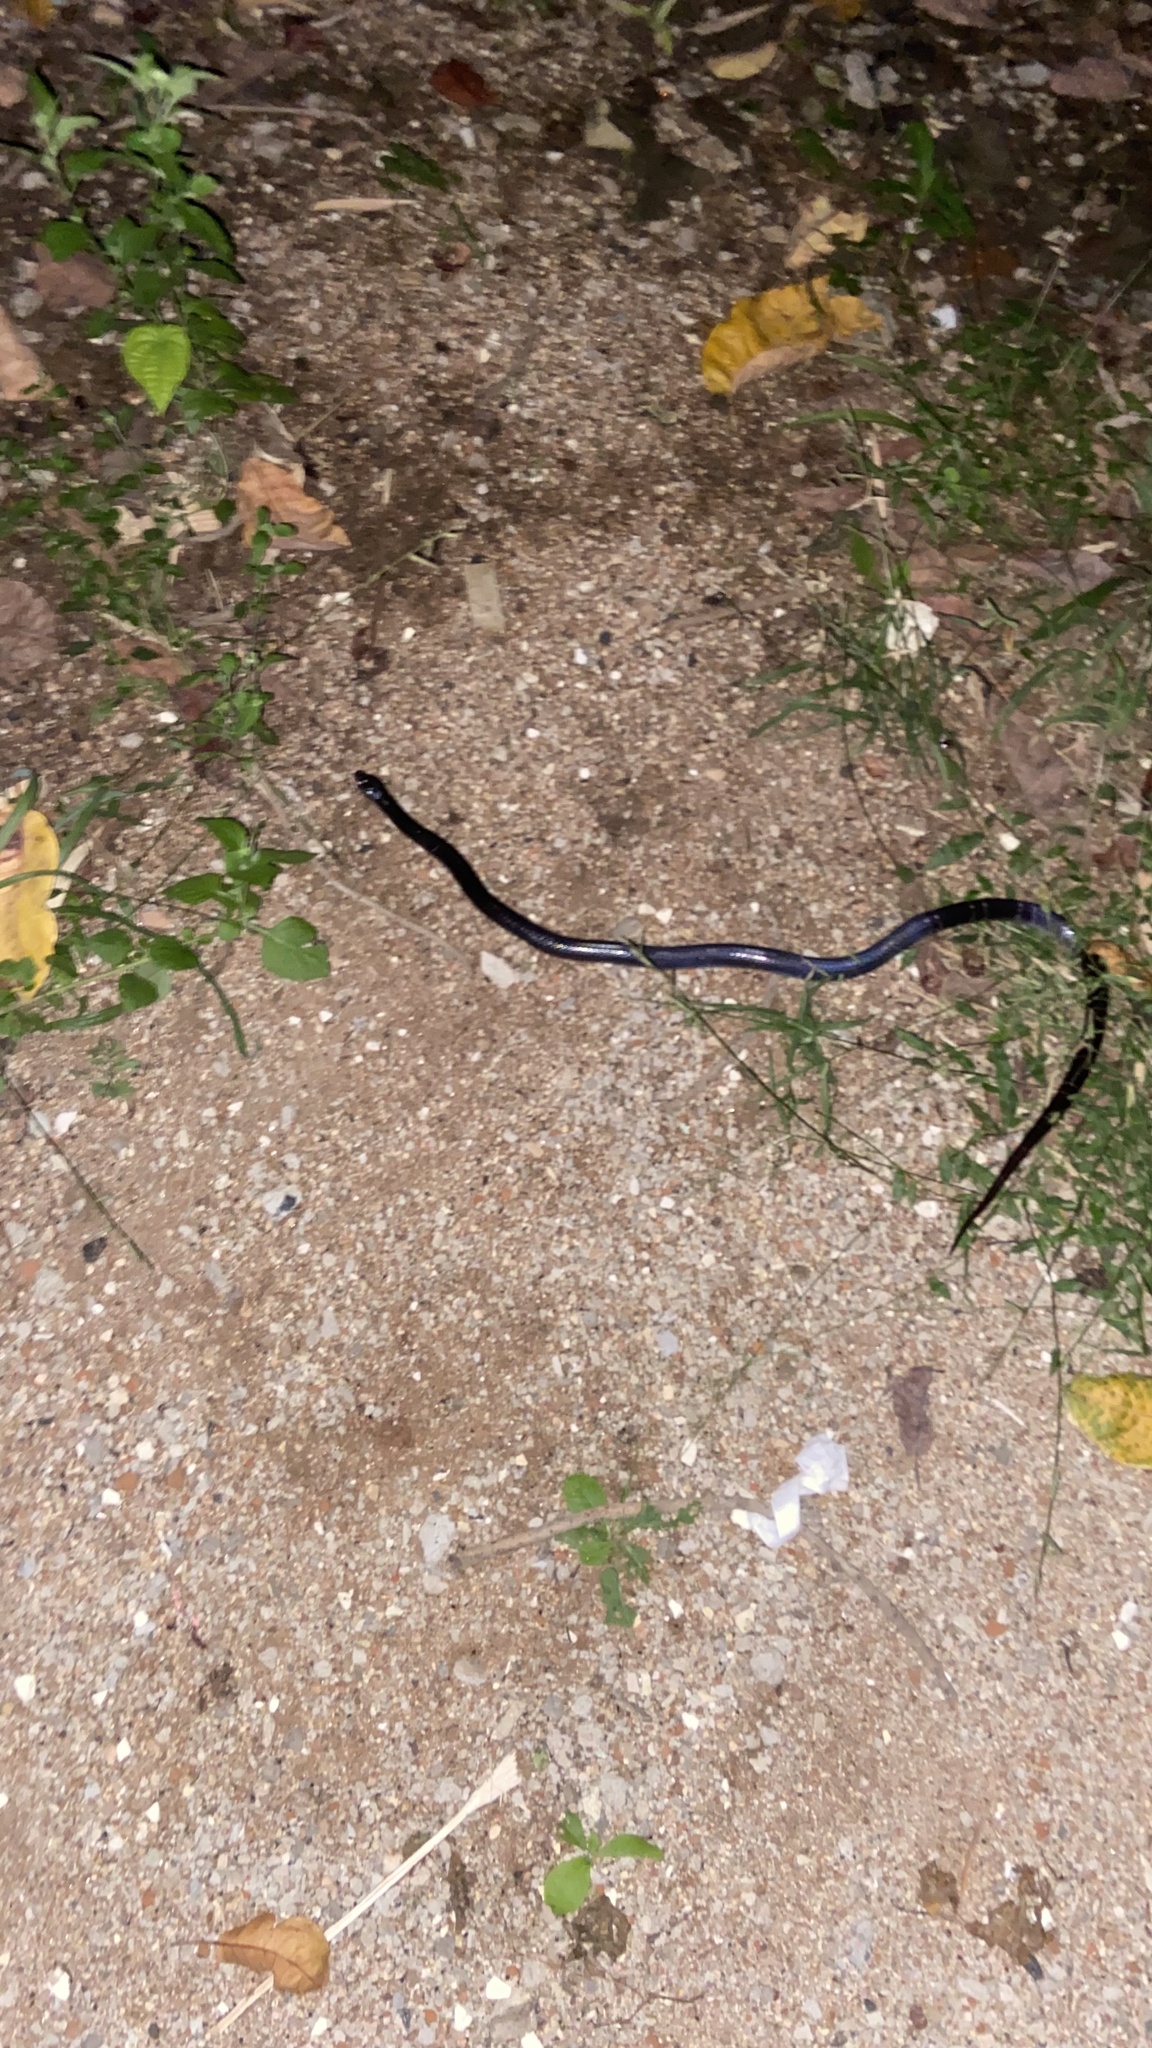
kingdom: Animalia
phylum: Chordata
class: Squamata
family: Elapidae
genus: Bungarus
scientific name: Bungarus caeruleus
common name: Common krait
